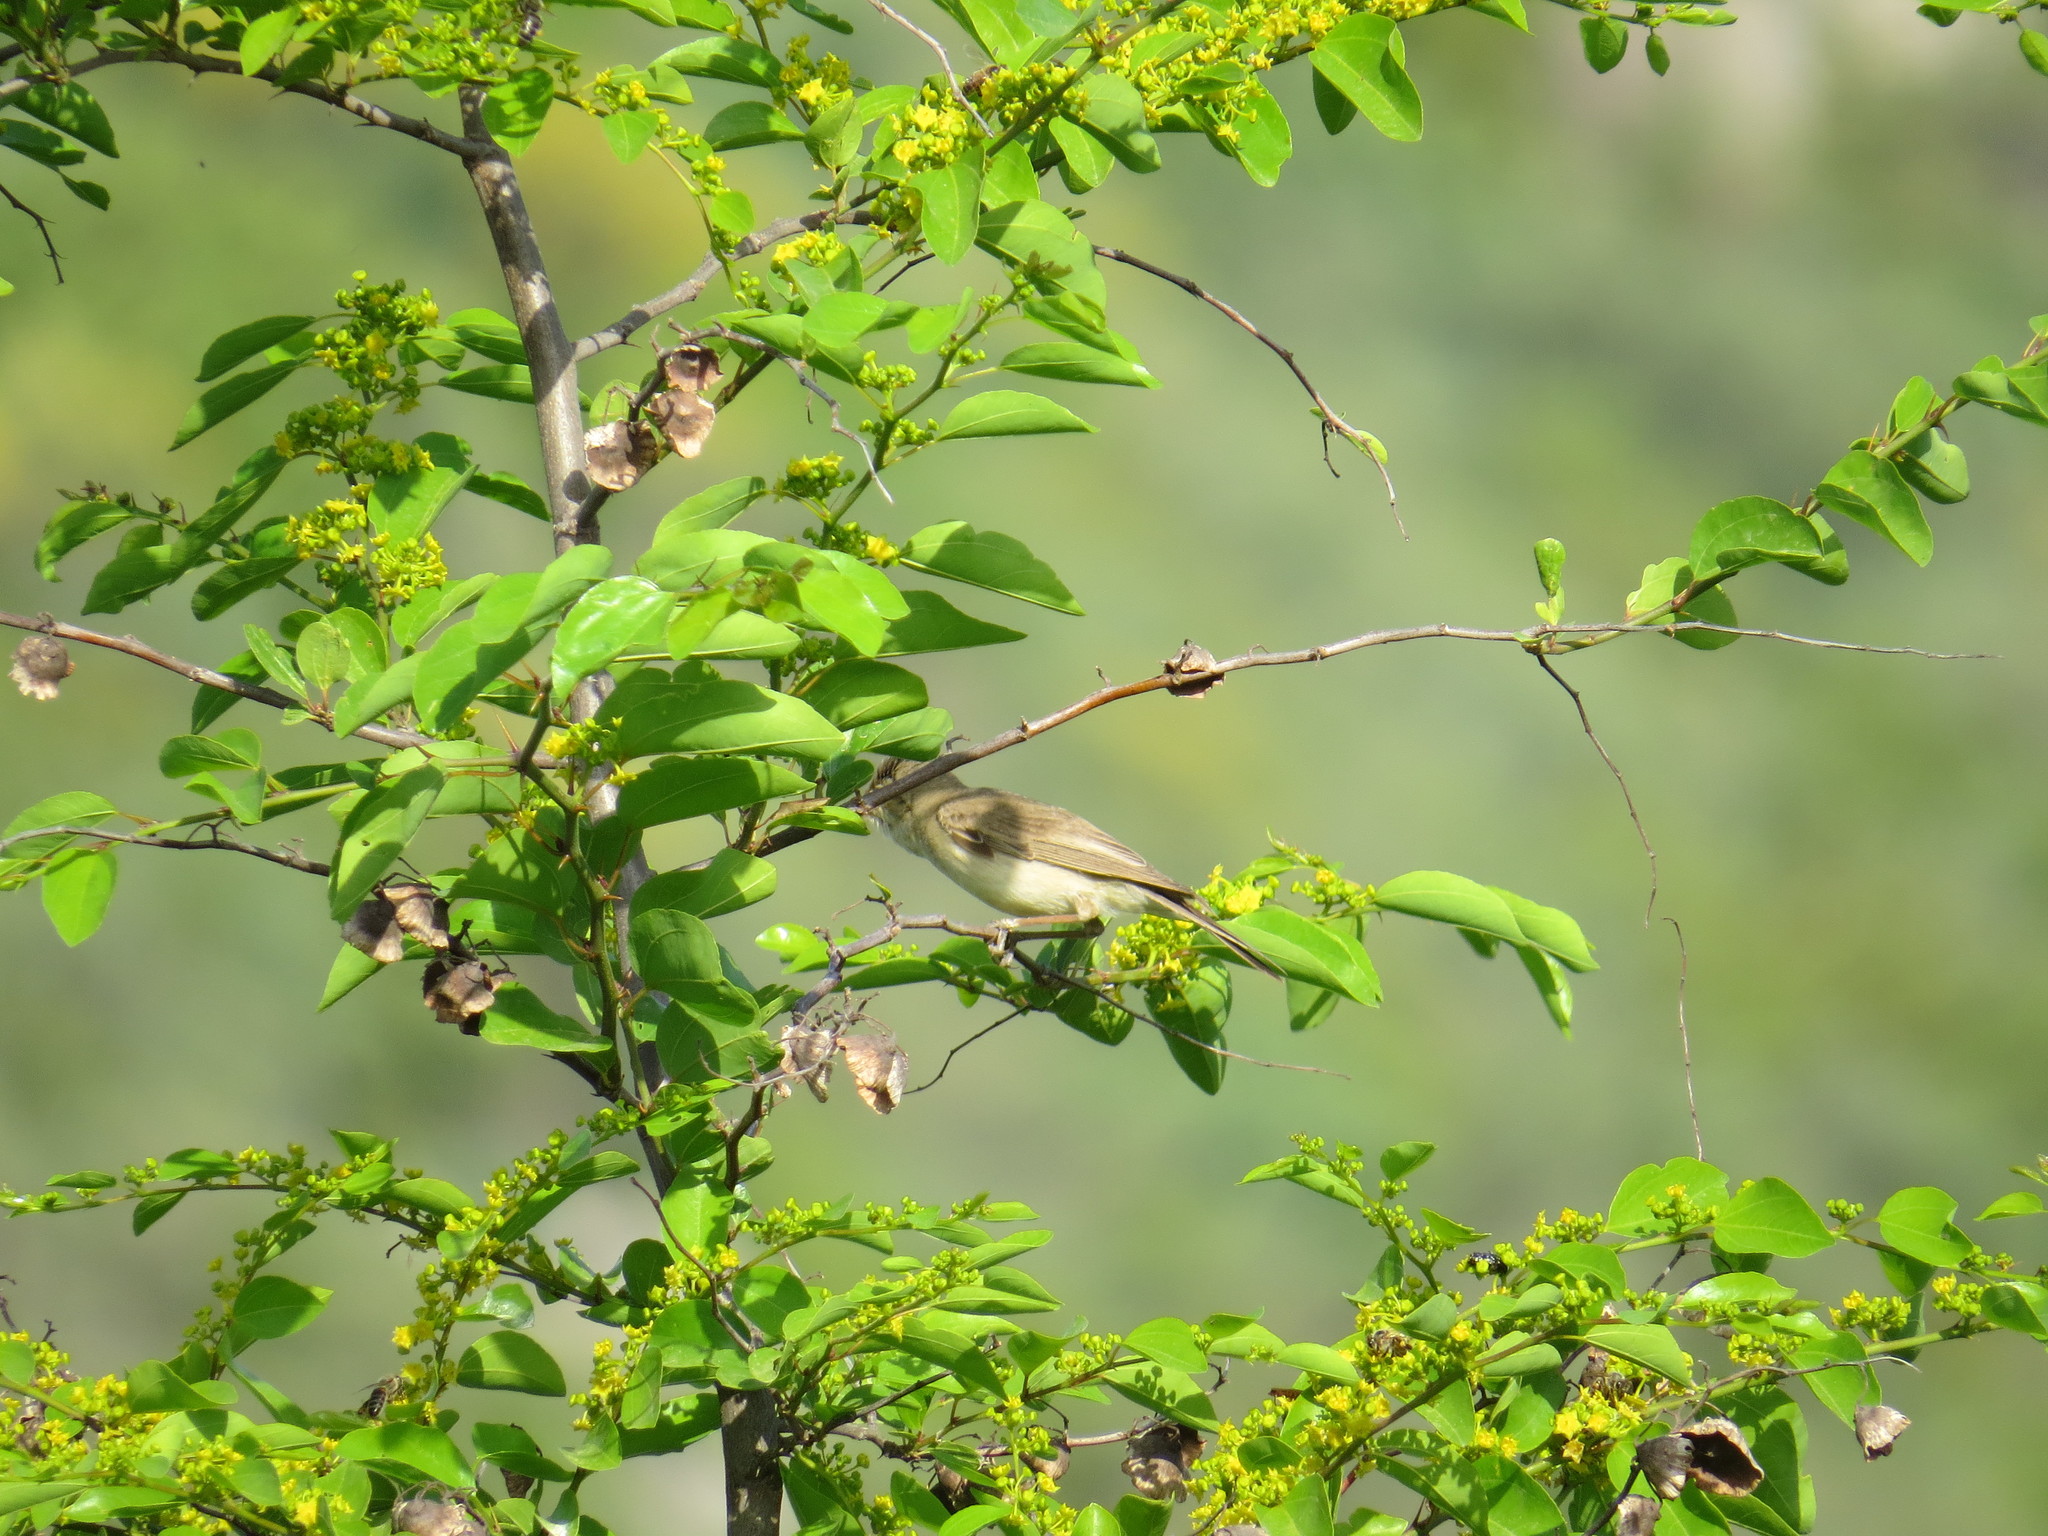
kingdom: Animalia
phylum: Chordata
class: Aves
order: Passeriformes
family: Acrocephalidae
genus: Iduna
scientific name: Iduna pallida
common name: Eastern olivaceous warbler
